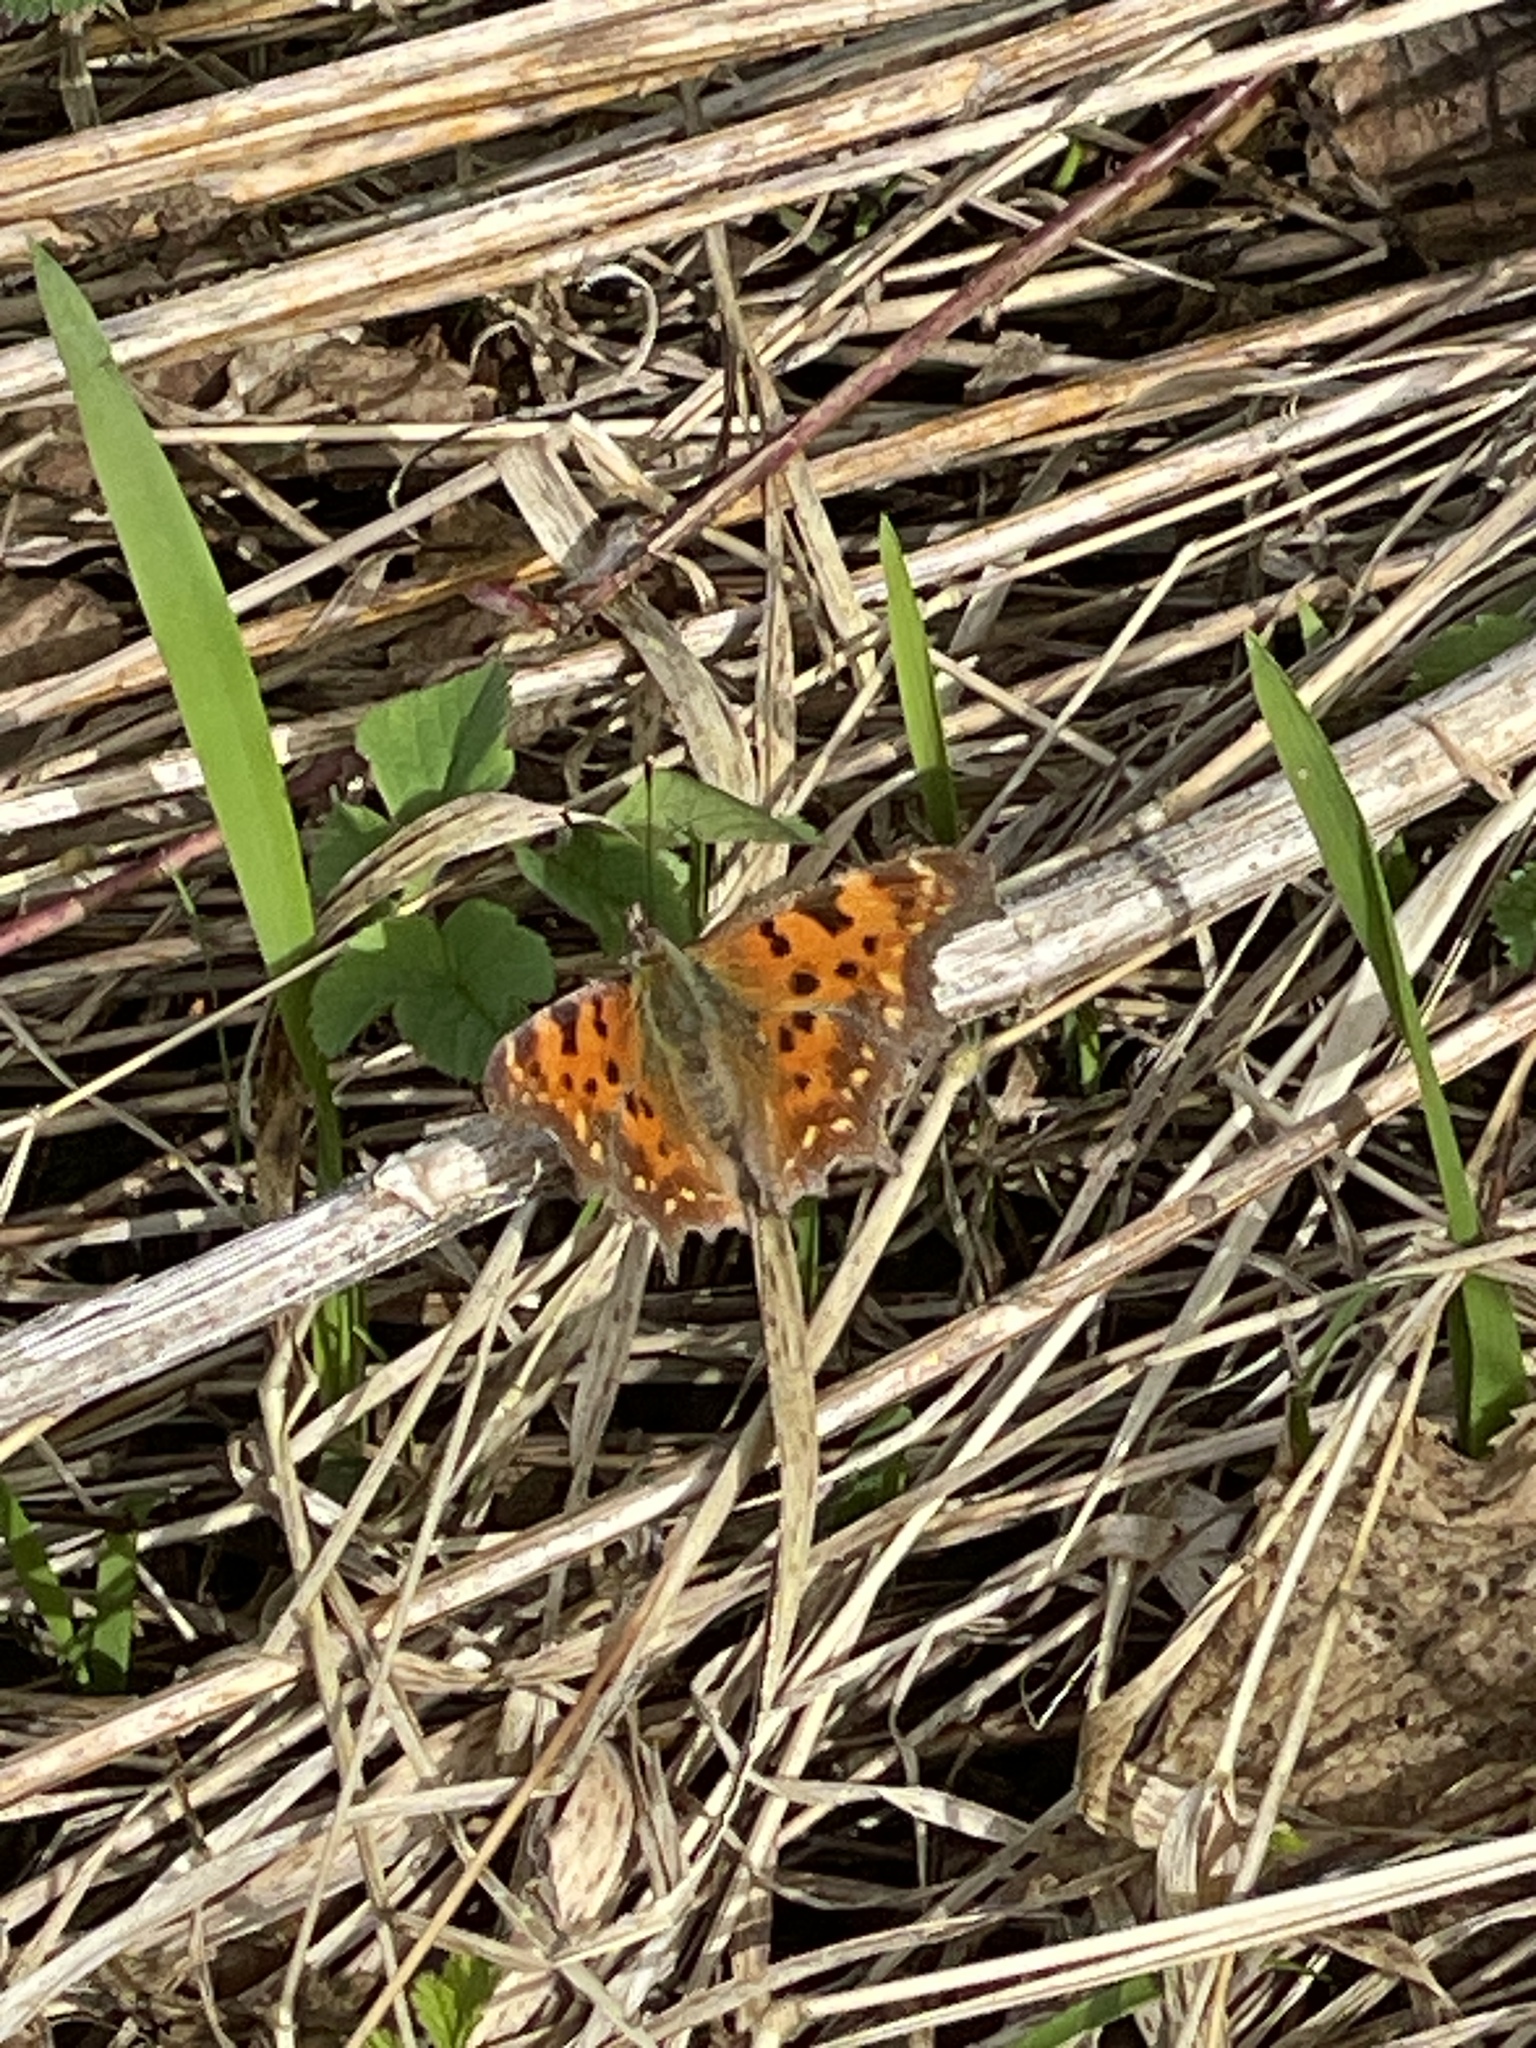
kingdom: Animalia
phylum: Arthropoda
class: Insecta
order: Lepidoptera
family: Nymphalidae
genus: Polygonia
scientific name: Polygonia c-album
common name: Comma
